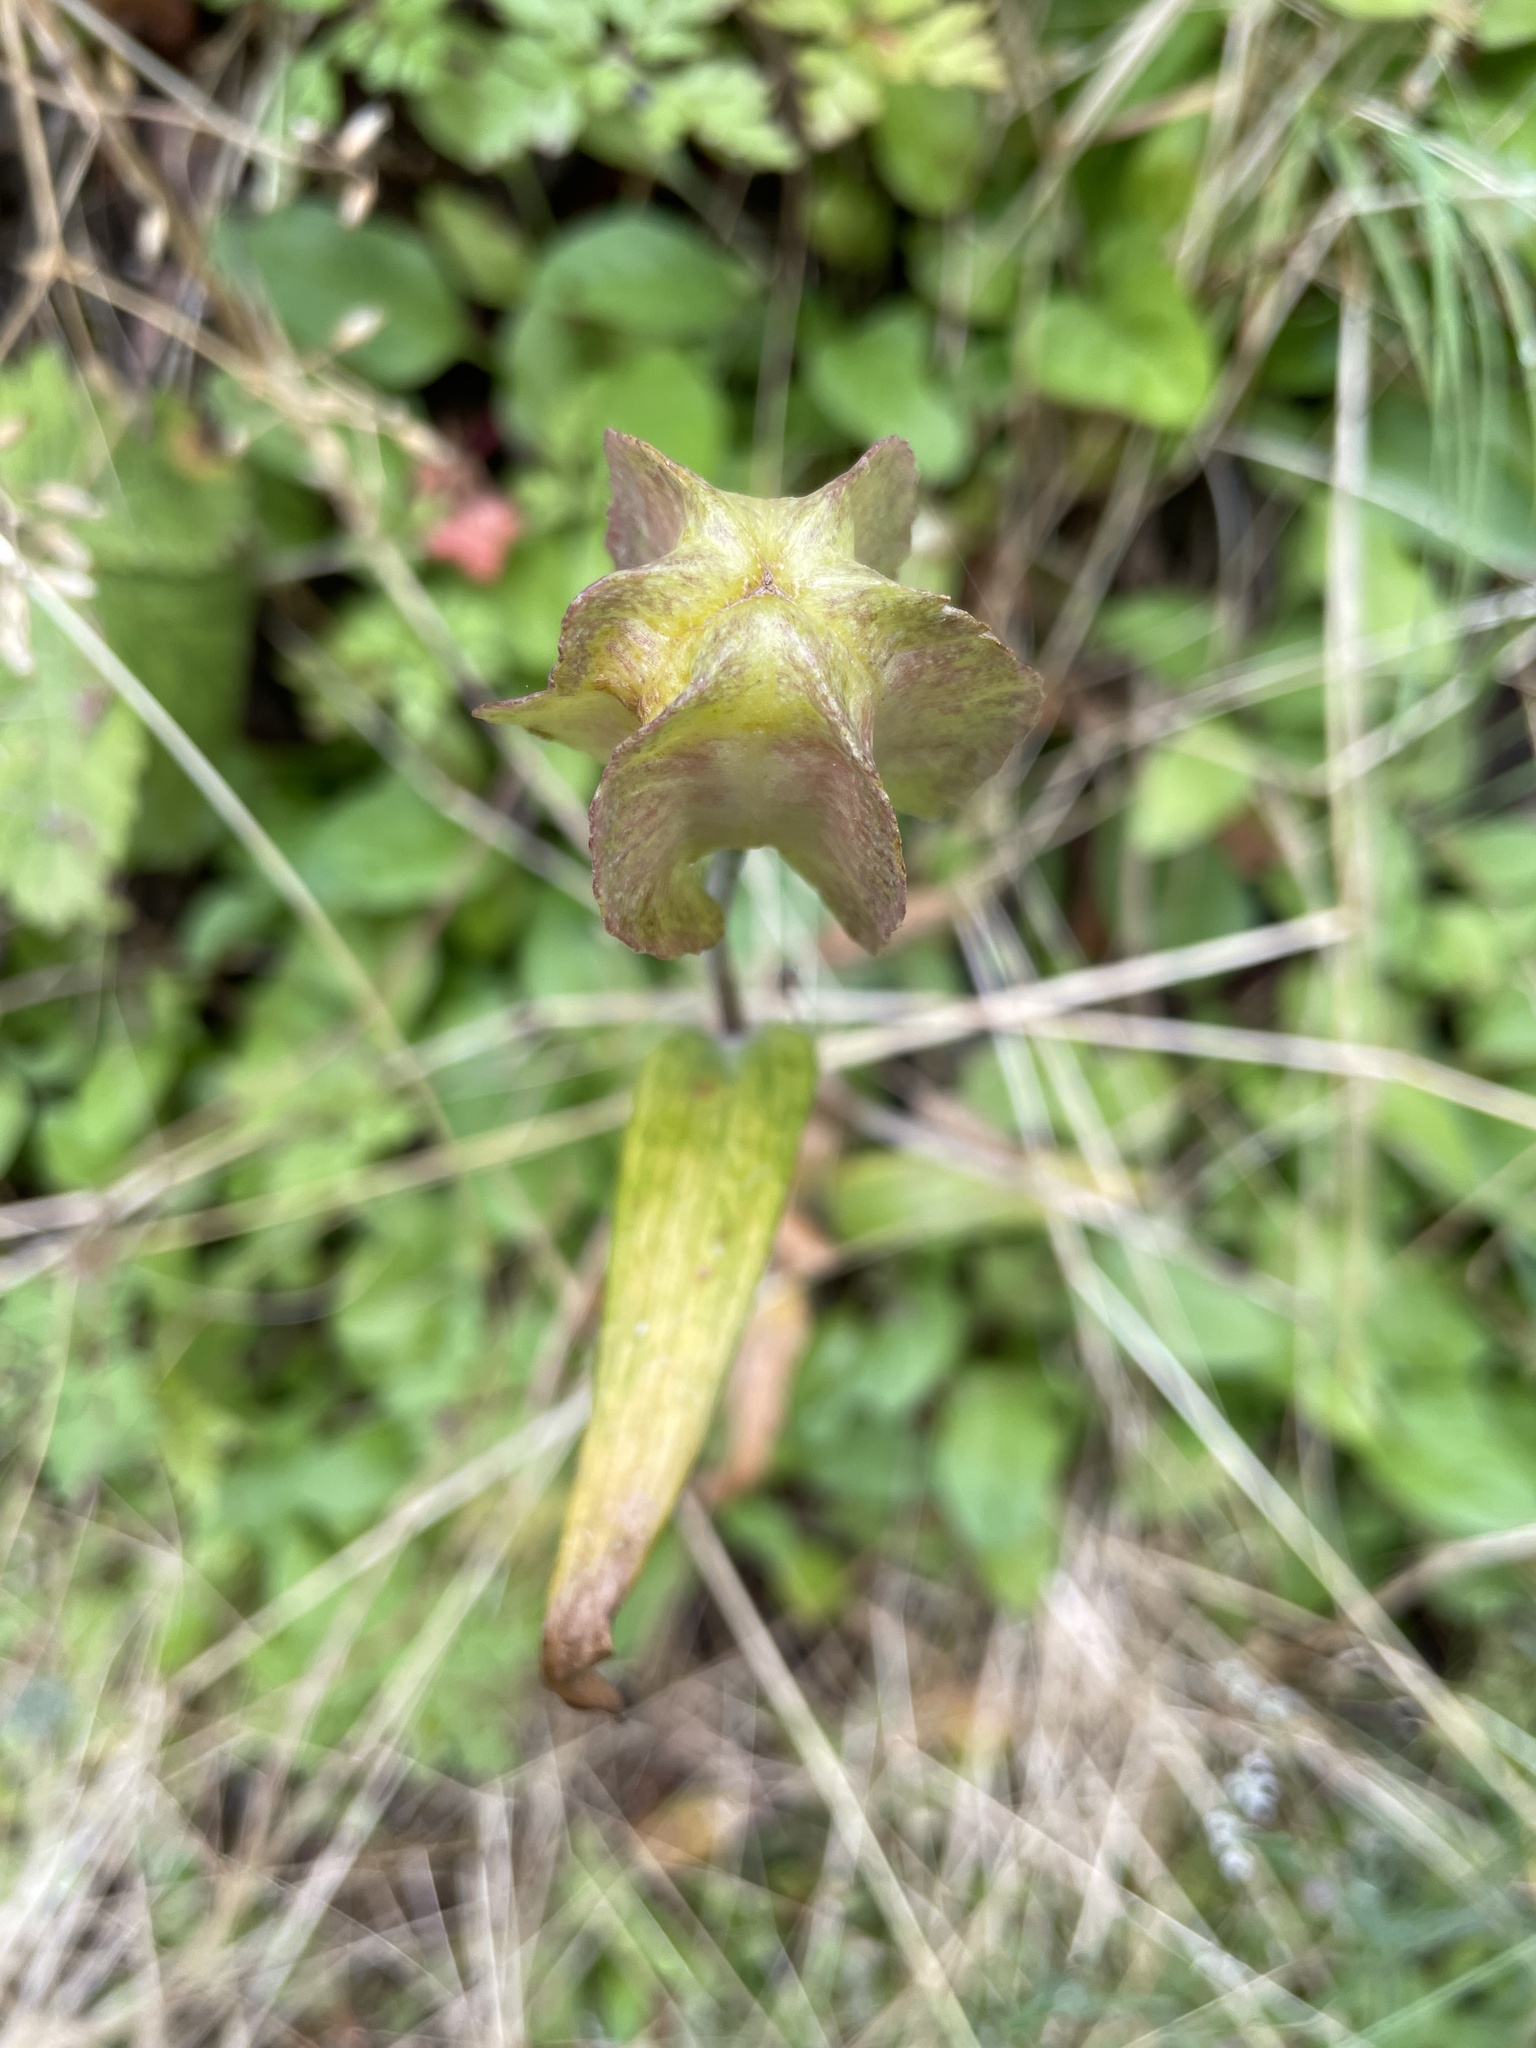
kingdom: Plantae
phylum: Tracheophyta
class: Liliopsida
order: Liliales
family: Liliaceae
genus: Fritillaria
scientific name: Fritillaria affinis
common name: Ojai fritillary
